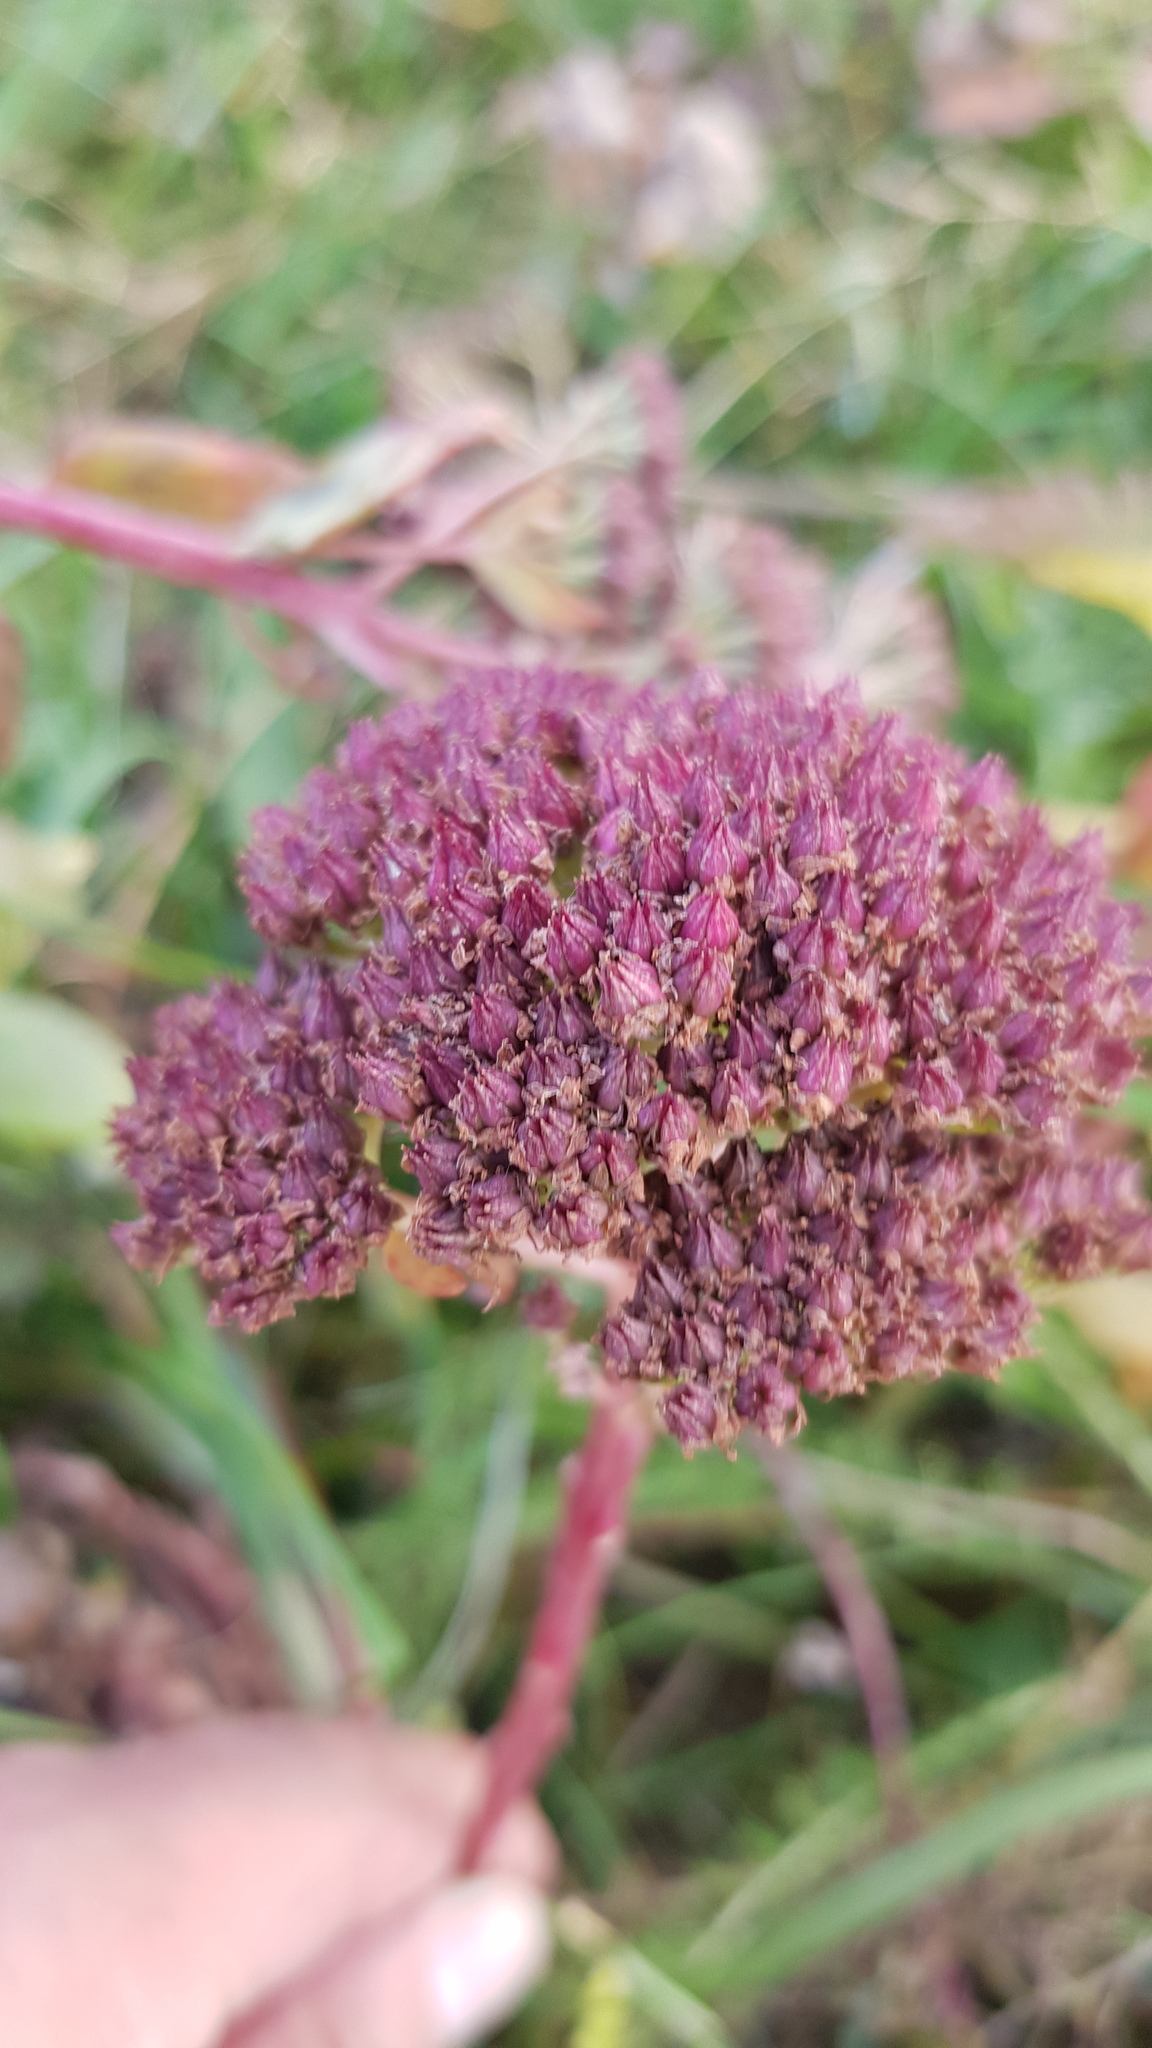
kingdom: Plantae
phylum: Tracheophyta
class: Magnoliopsida
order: Saxifragales
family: Crassulaceae
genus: Hylotelephium
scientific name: Hylotelephium telephium
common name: Live-forever
